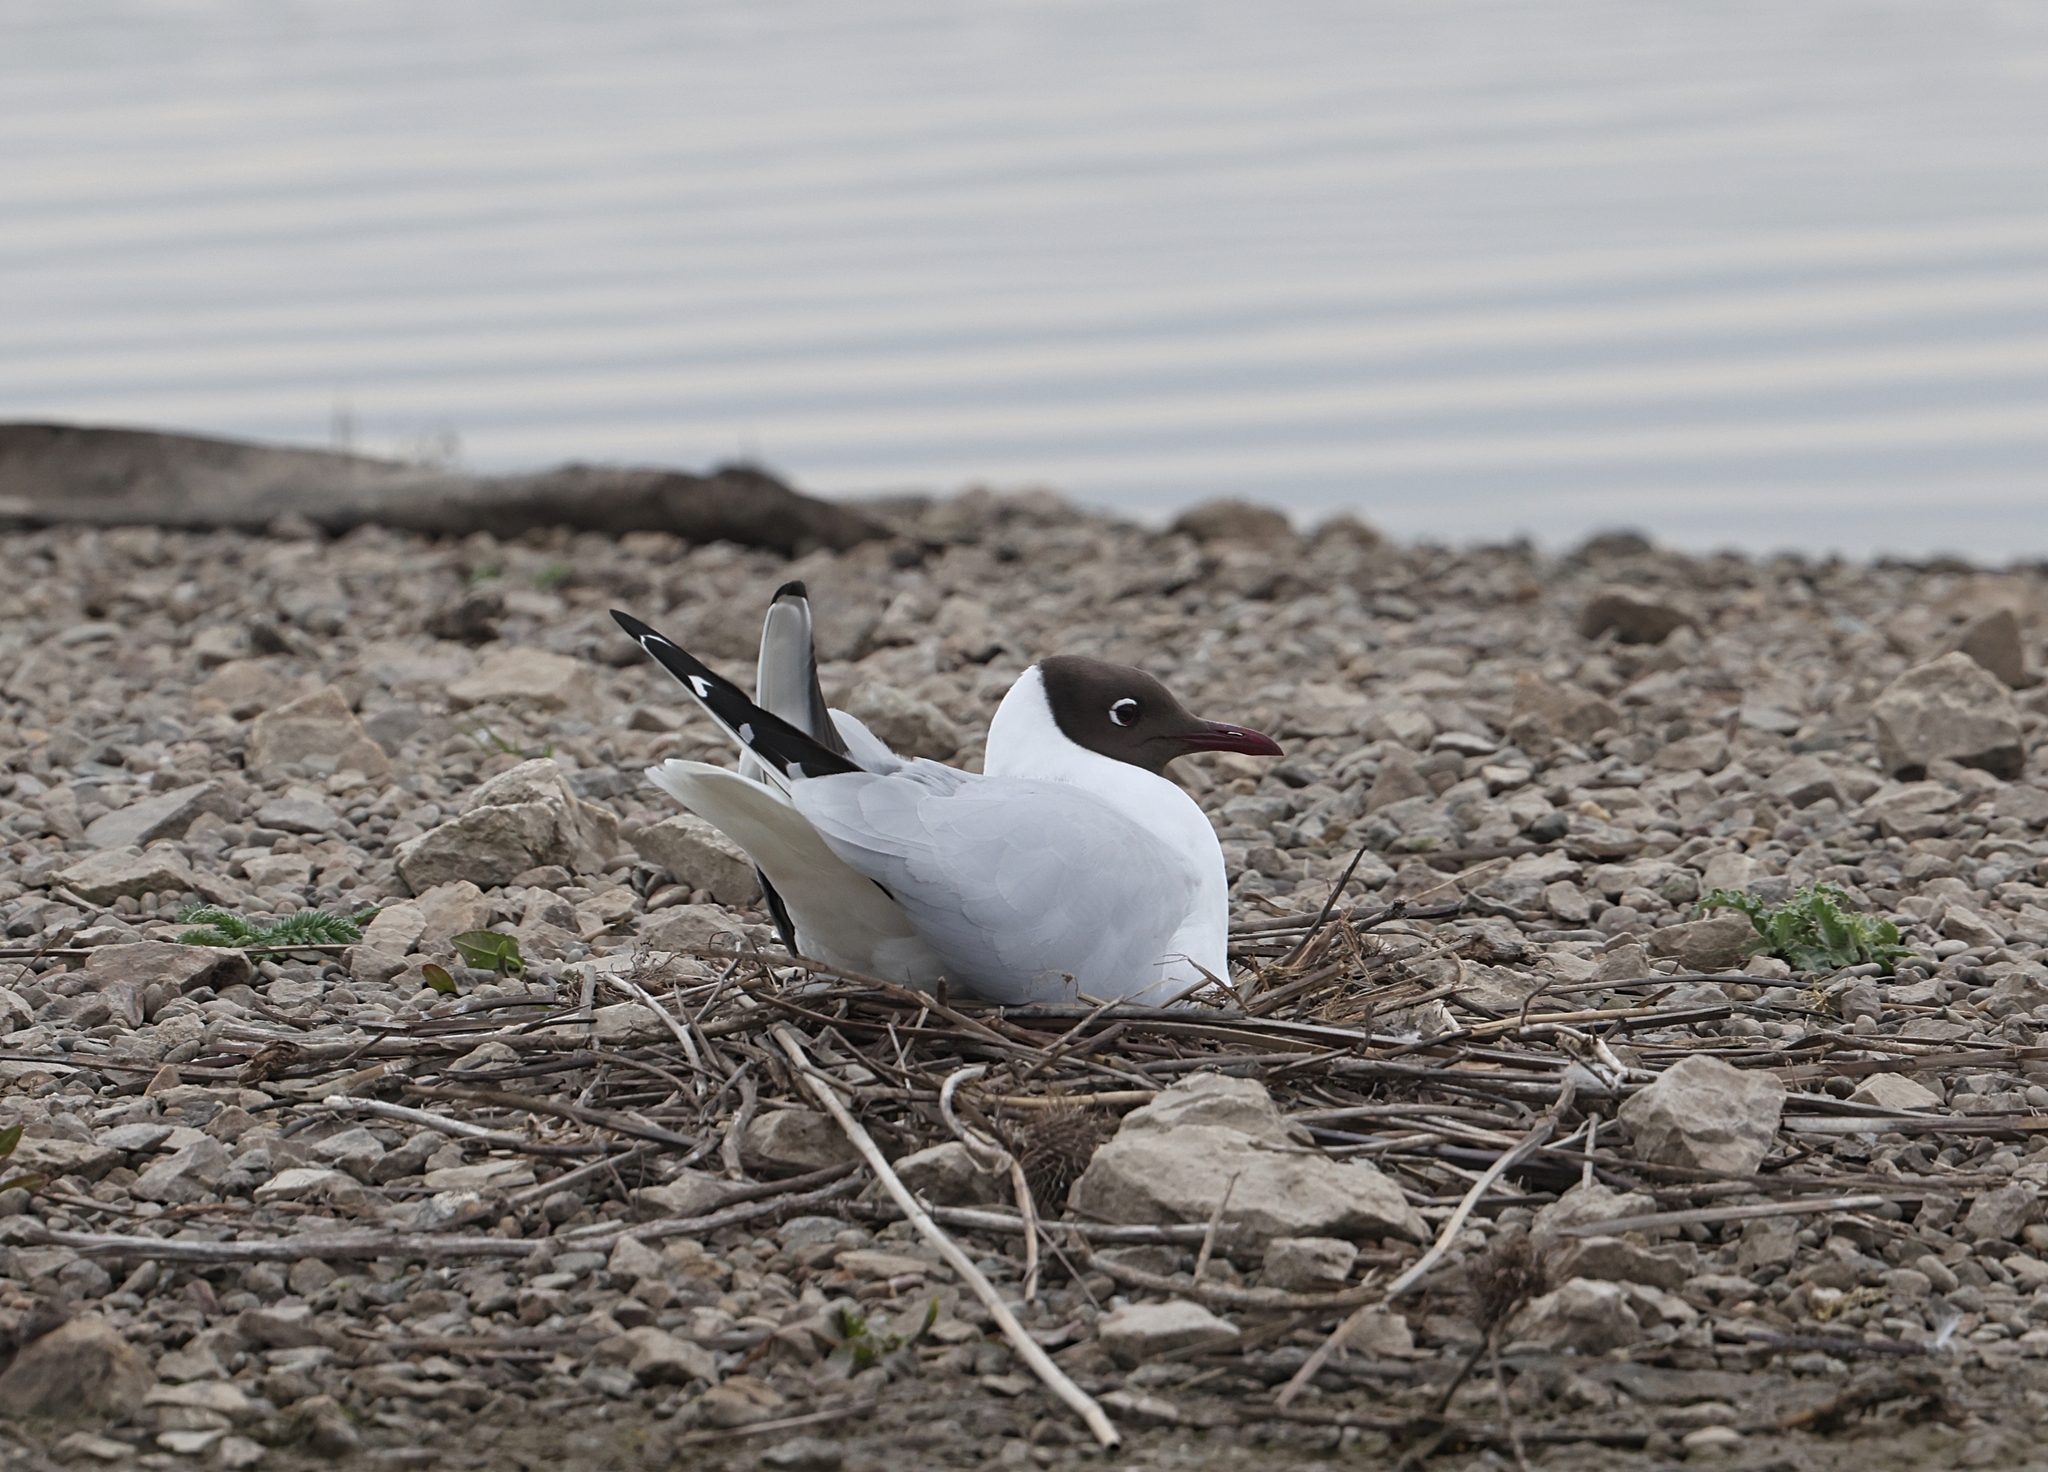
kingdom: Animalia
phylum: Chordata
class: Aves
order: Charadriiformes
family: Laridae
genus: Chroicocephalus
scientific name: Chroicocephalus ridibundus
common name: Black-headed gull
